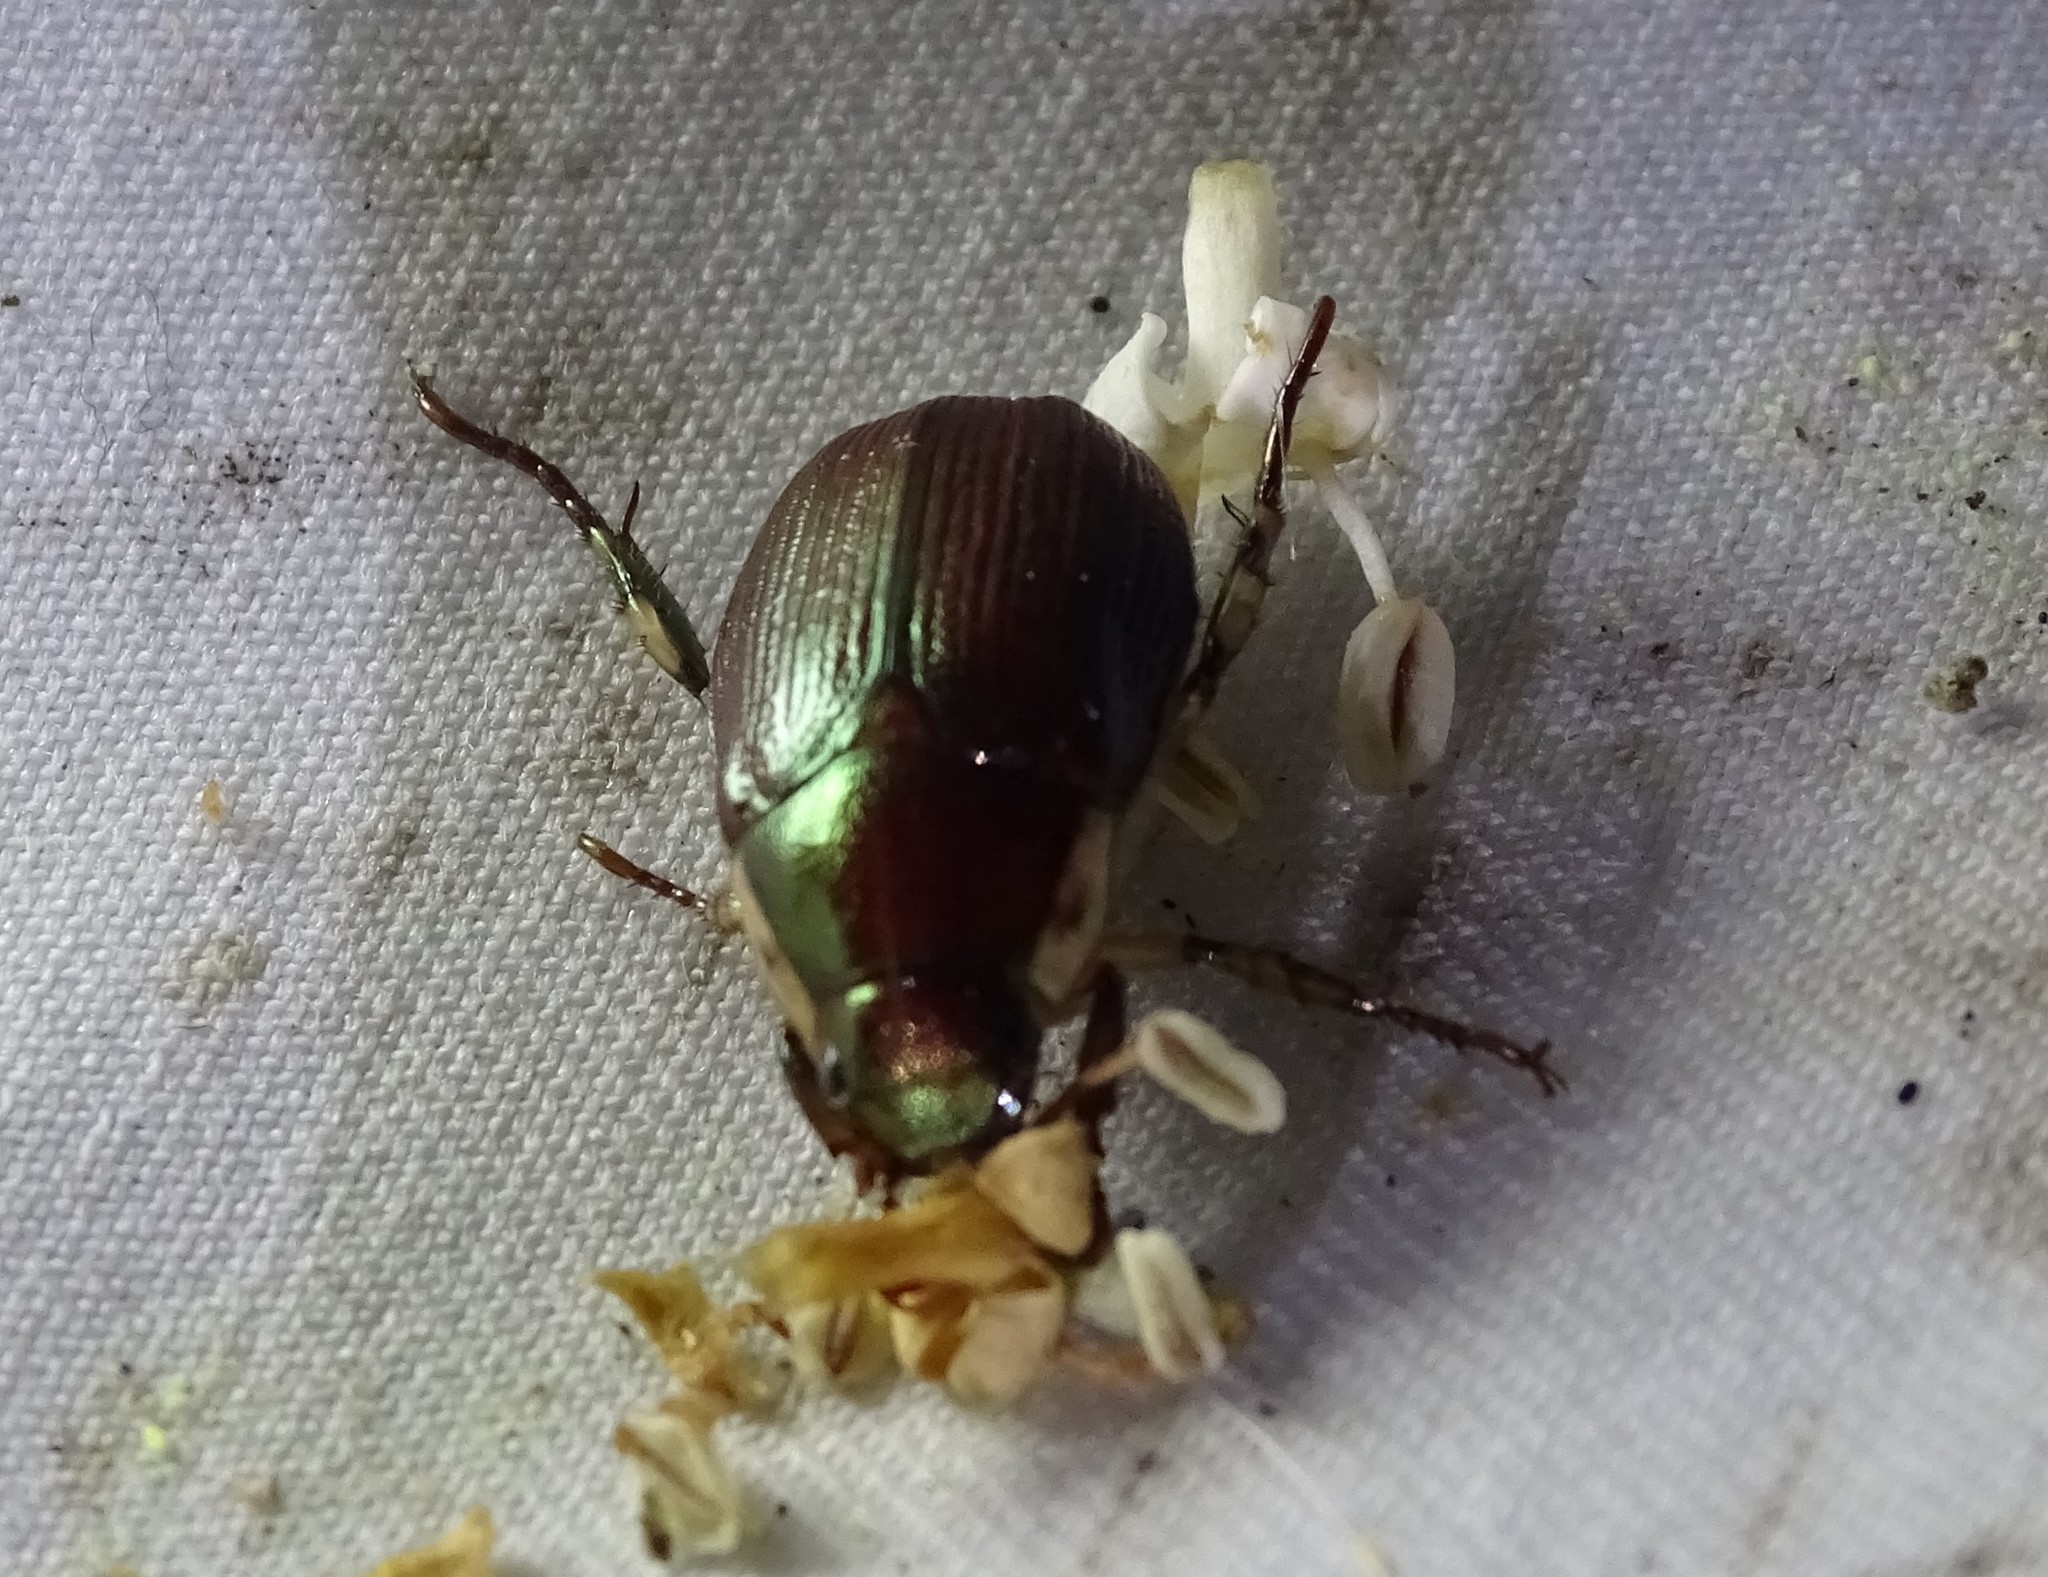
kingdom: Animalia
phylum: Arthropoda
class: Insecta
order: Coleoptera
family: Scarabaeidae
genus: Callistethus
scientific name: Callistethus marginatus
